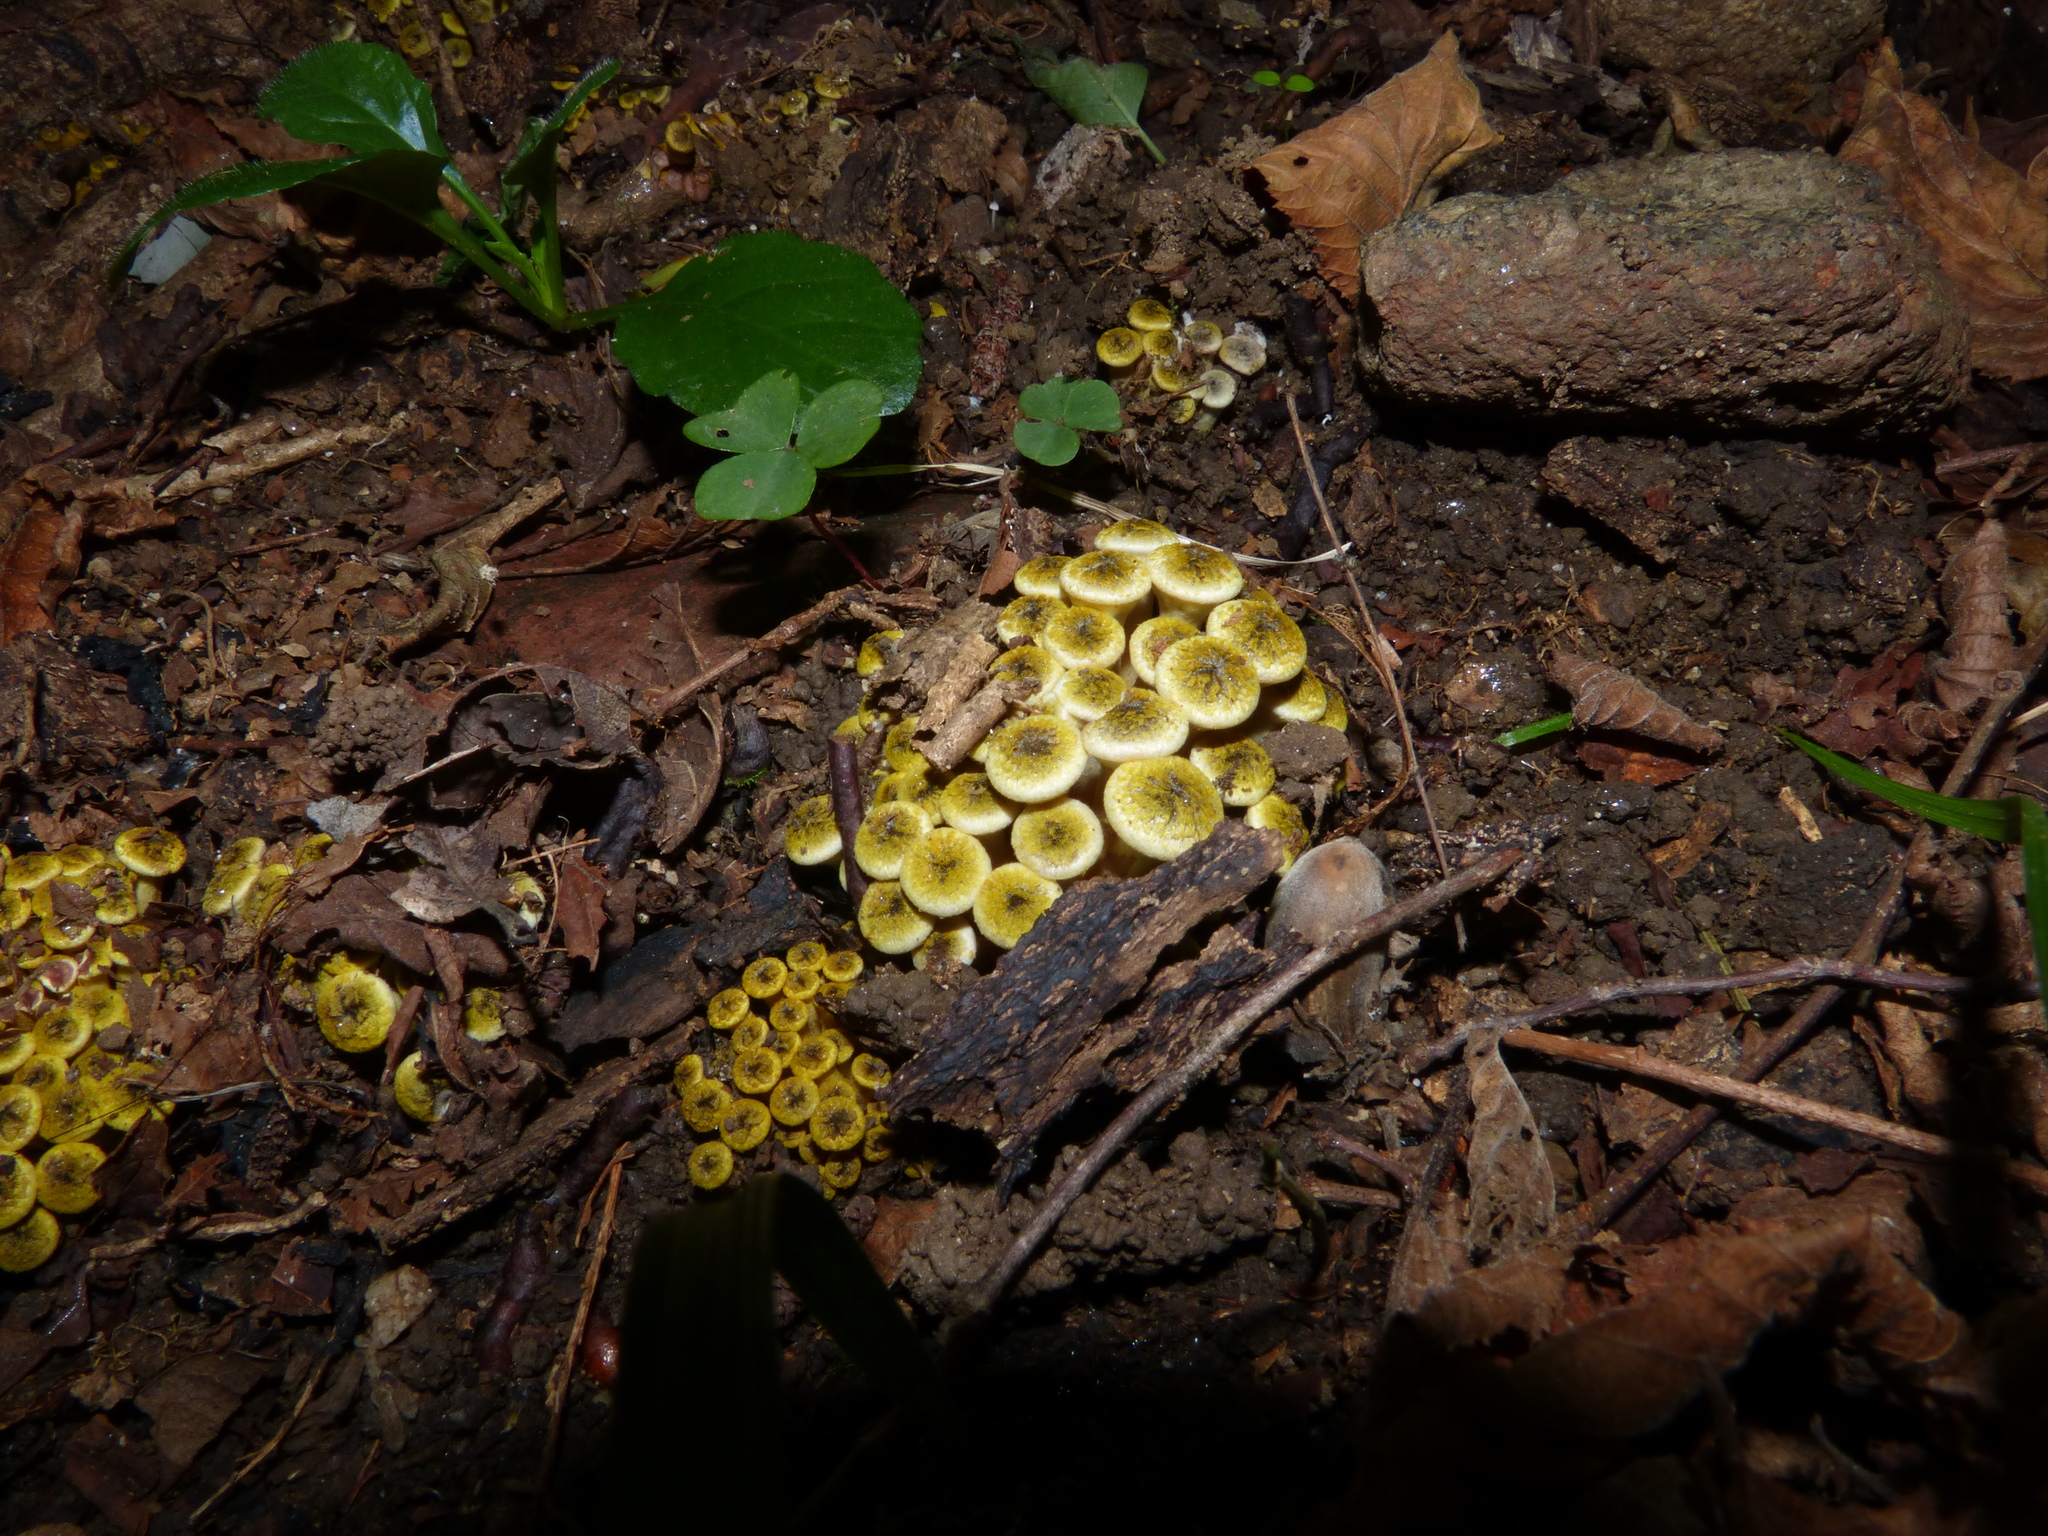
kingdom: Fungi
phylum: Basidiomycota
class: Agaricomycetes
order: Agaricales
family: Physalacriaceae
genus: Armillaria
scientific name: Armillaria mellea
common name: Honey fungus
